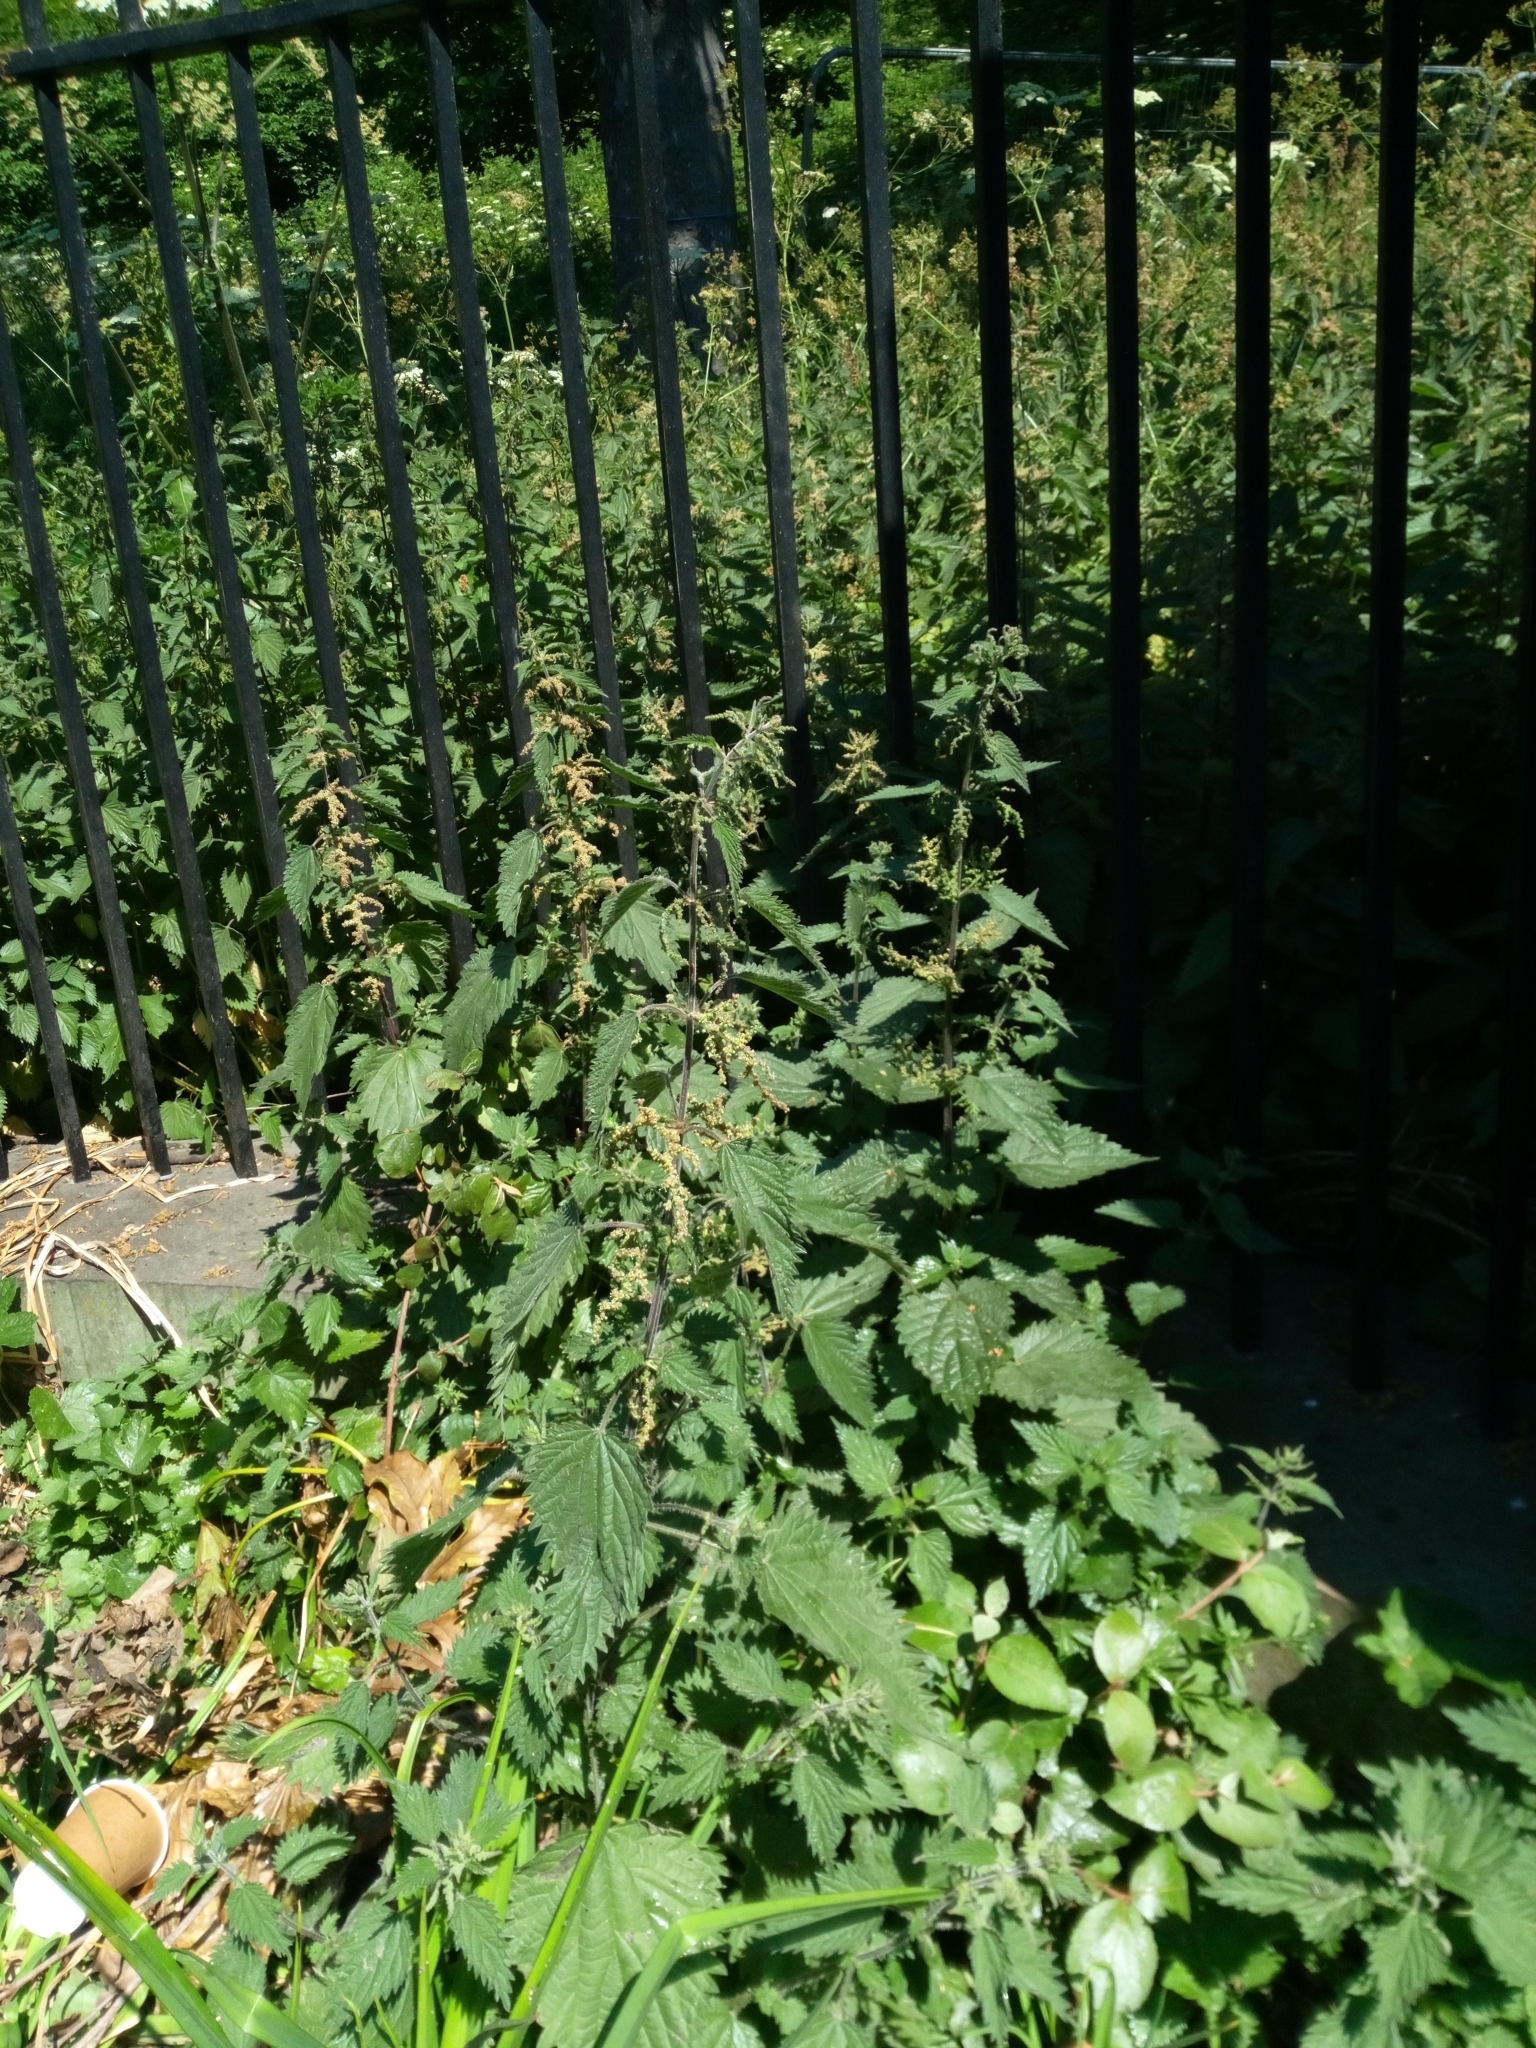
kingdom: Plantae
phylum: Tracheophyta
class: Magnoliopsida
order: Rosales
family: Urticaceae
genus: Urtica
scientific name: Urtica dioica
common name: Common nettle
